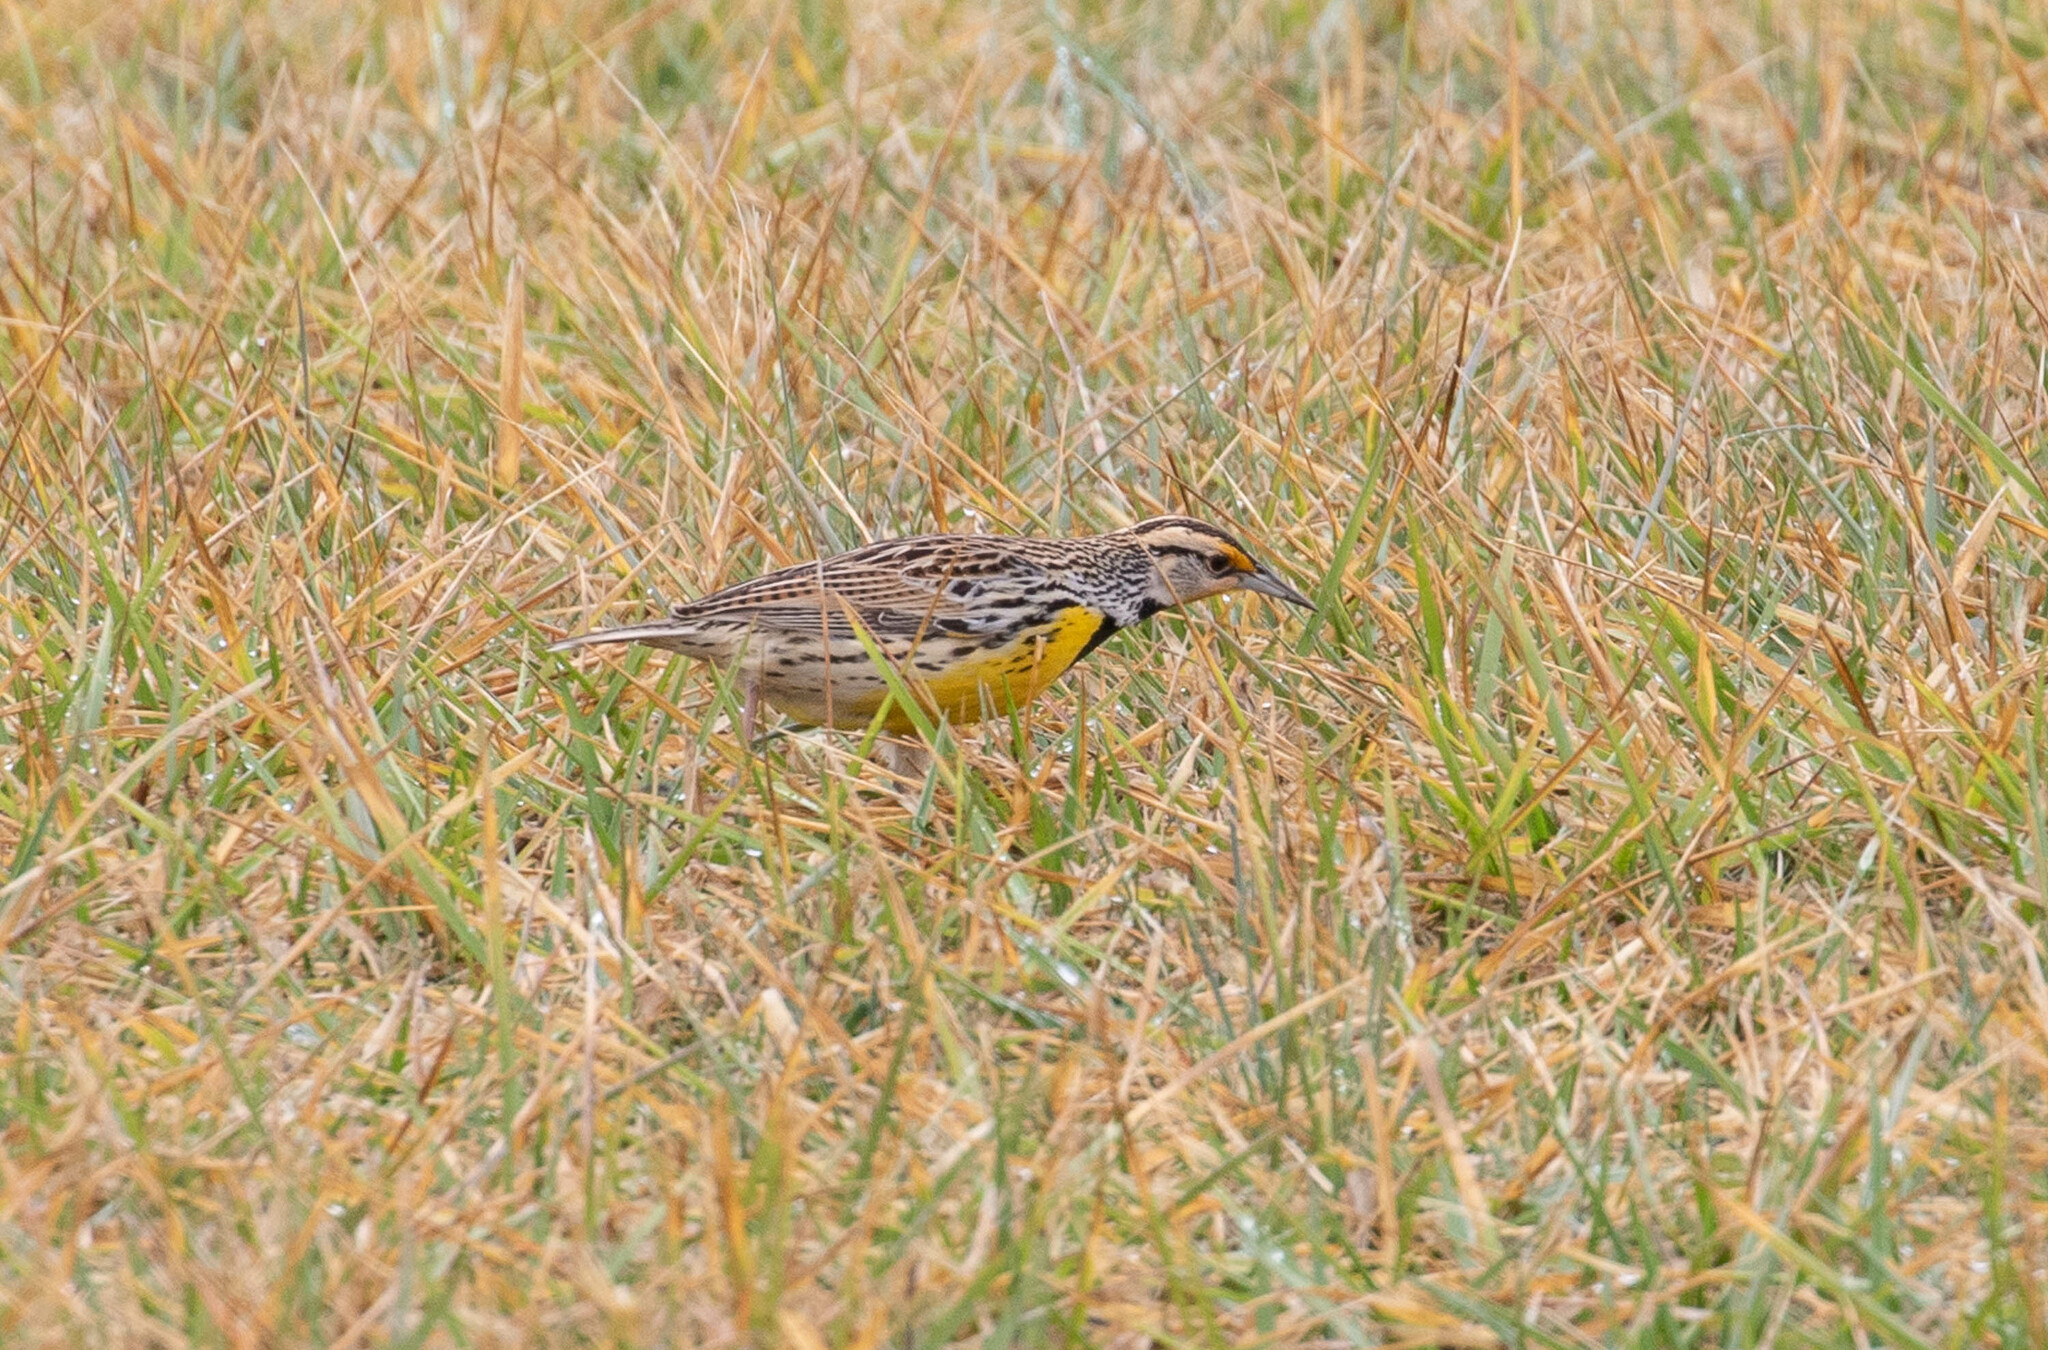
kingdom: Animalia
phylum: Chordata
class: Aves
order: Passeriformes
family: Icteridae
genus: Sturnella
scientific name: Sturnella magna
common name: Eastern meadowlark
